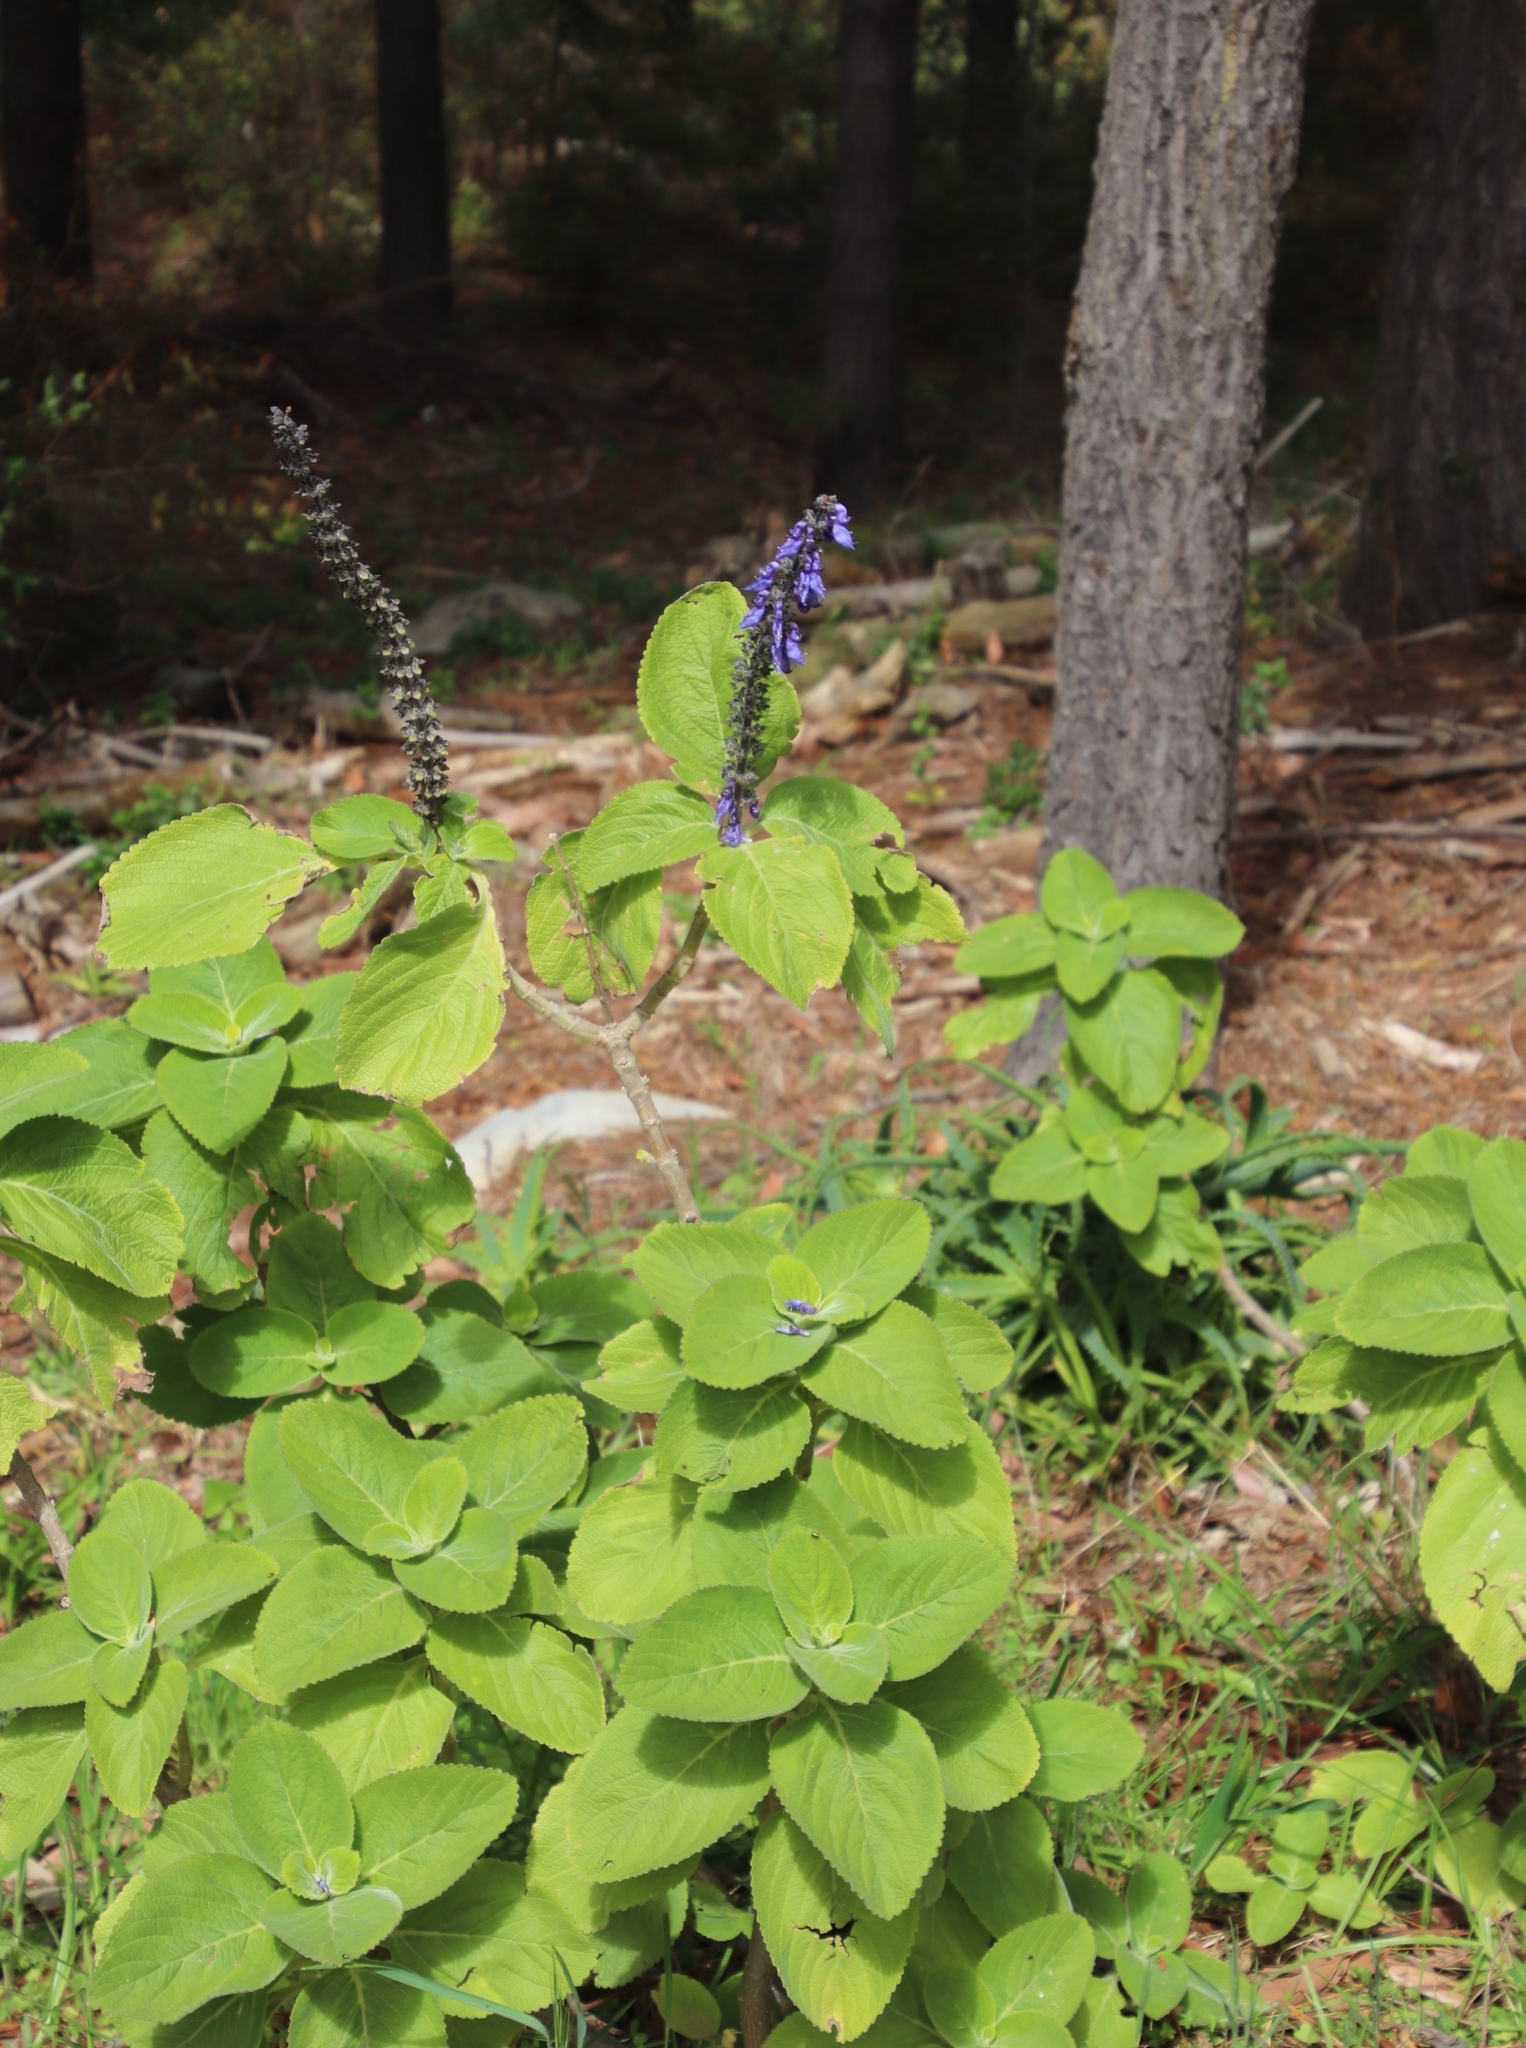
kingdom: Plantae
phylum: Tracheophyta
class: Magnoliopsida
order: Lamiales
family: Lamiaceae
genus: Coleus
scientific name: Coleus barbatus
